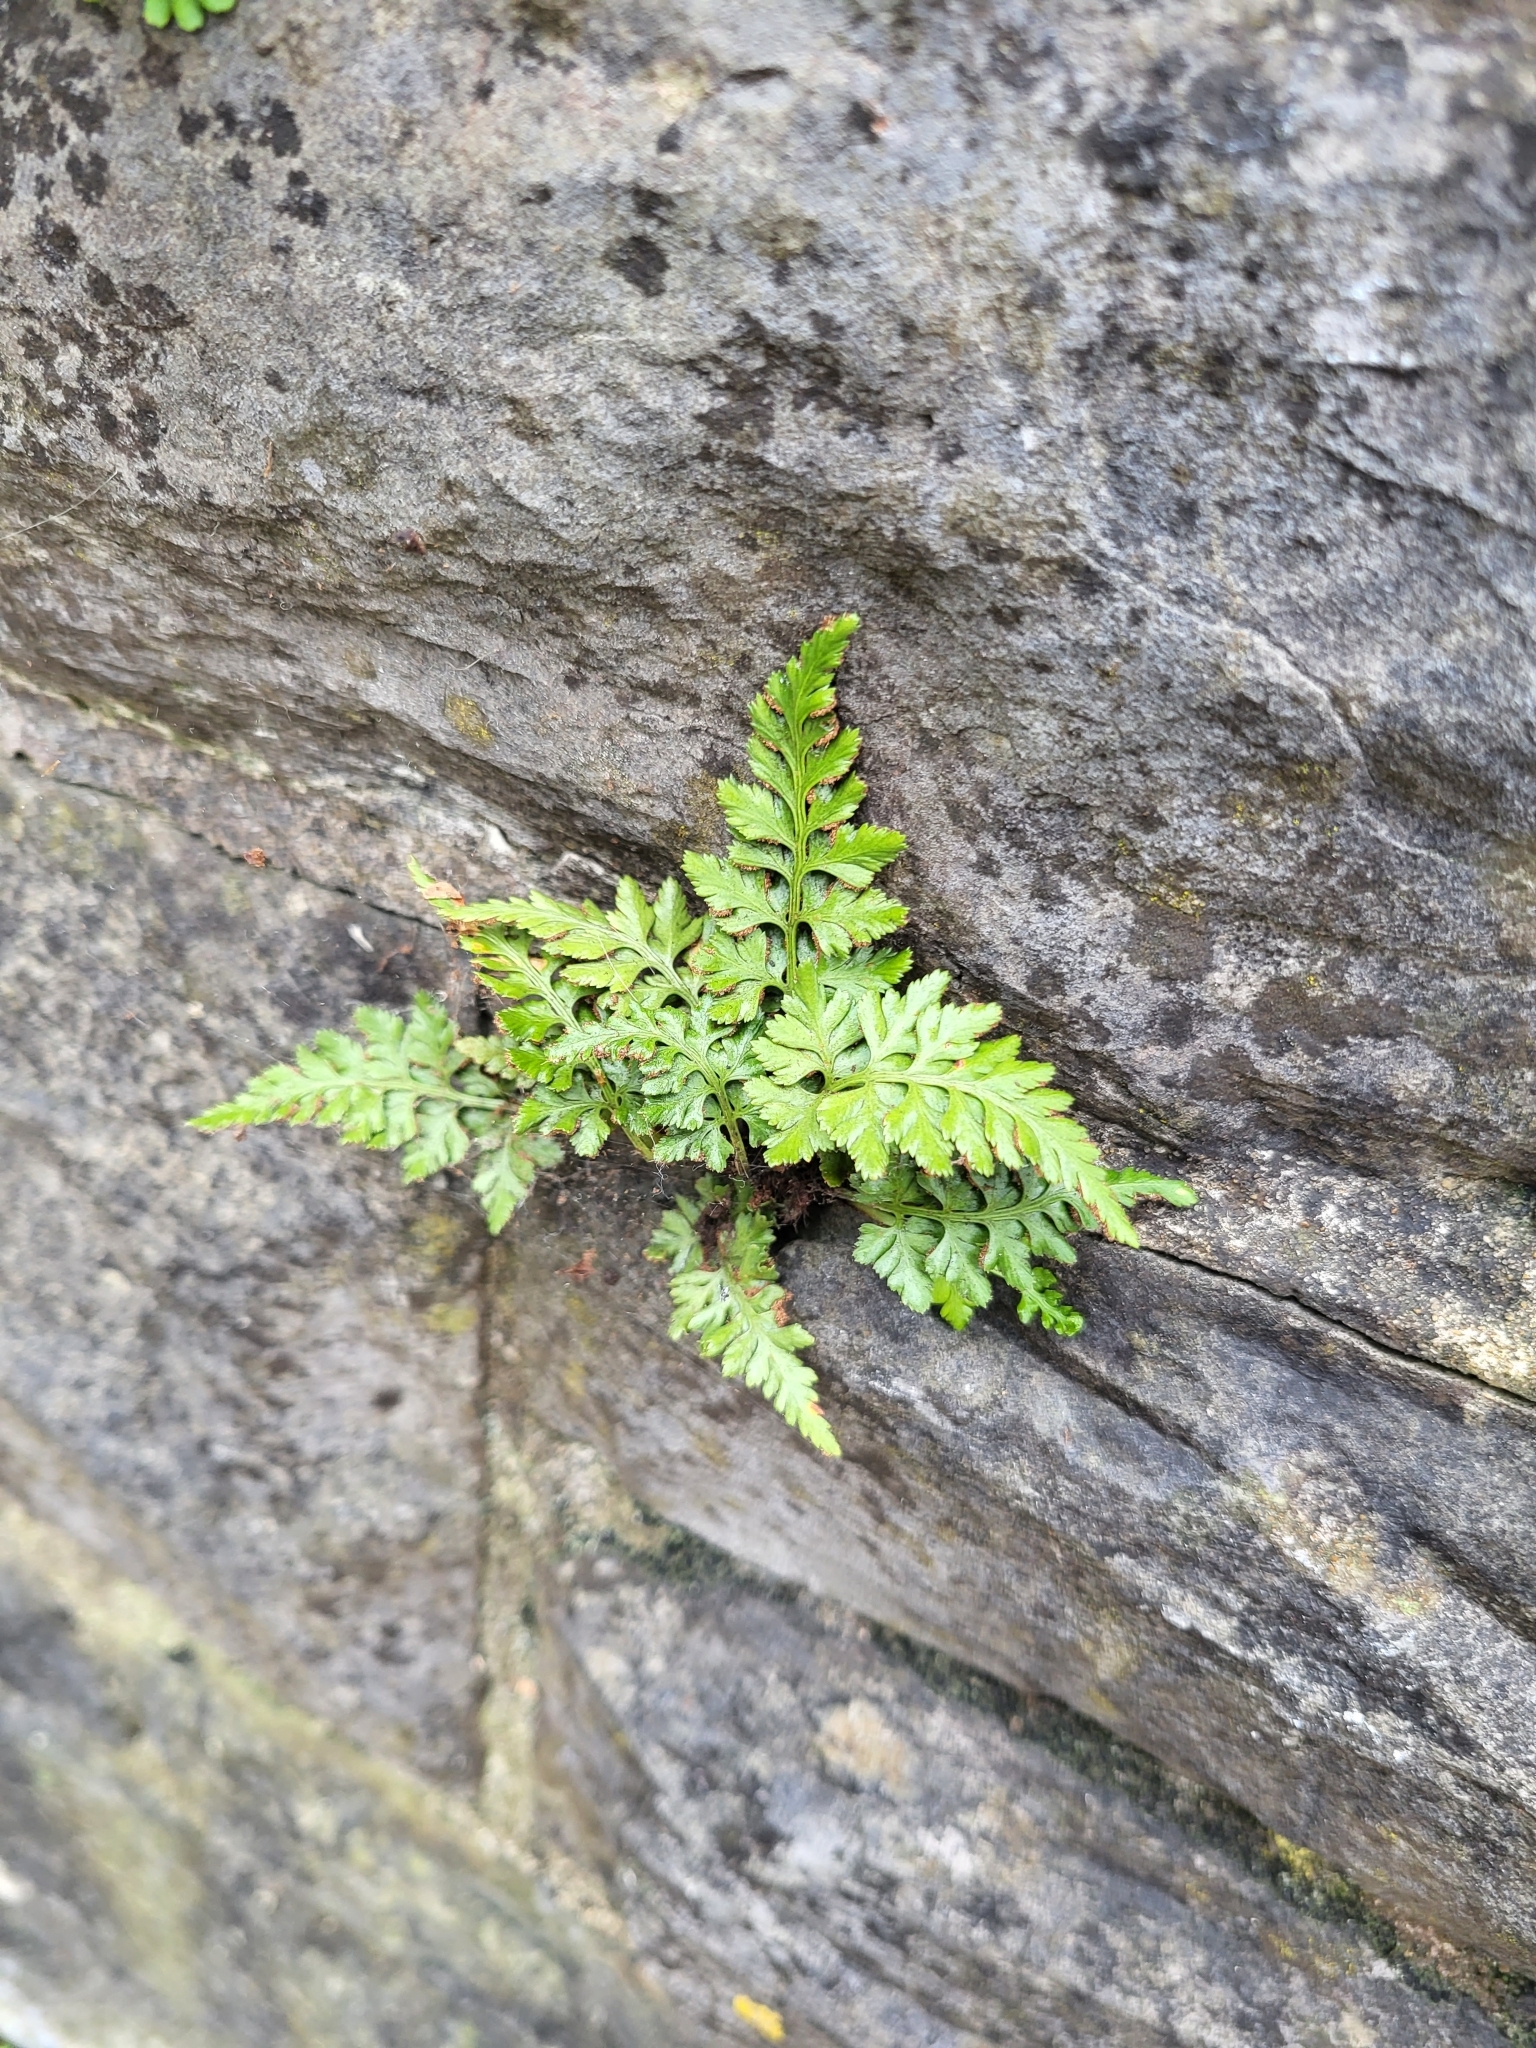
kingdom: Plantae
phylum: Tracheophyta
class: Polypodiopsida
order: Polypodiales
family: Aspleniaceae
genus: Asplenium
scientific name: Asplenium adiantum-nigrum
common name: Black spleenwort
